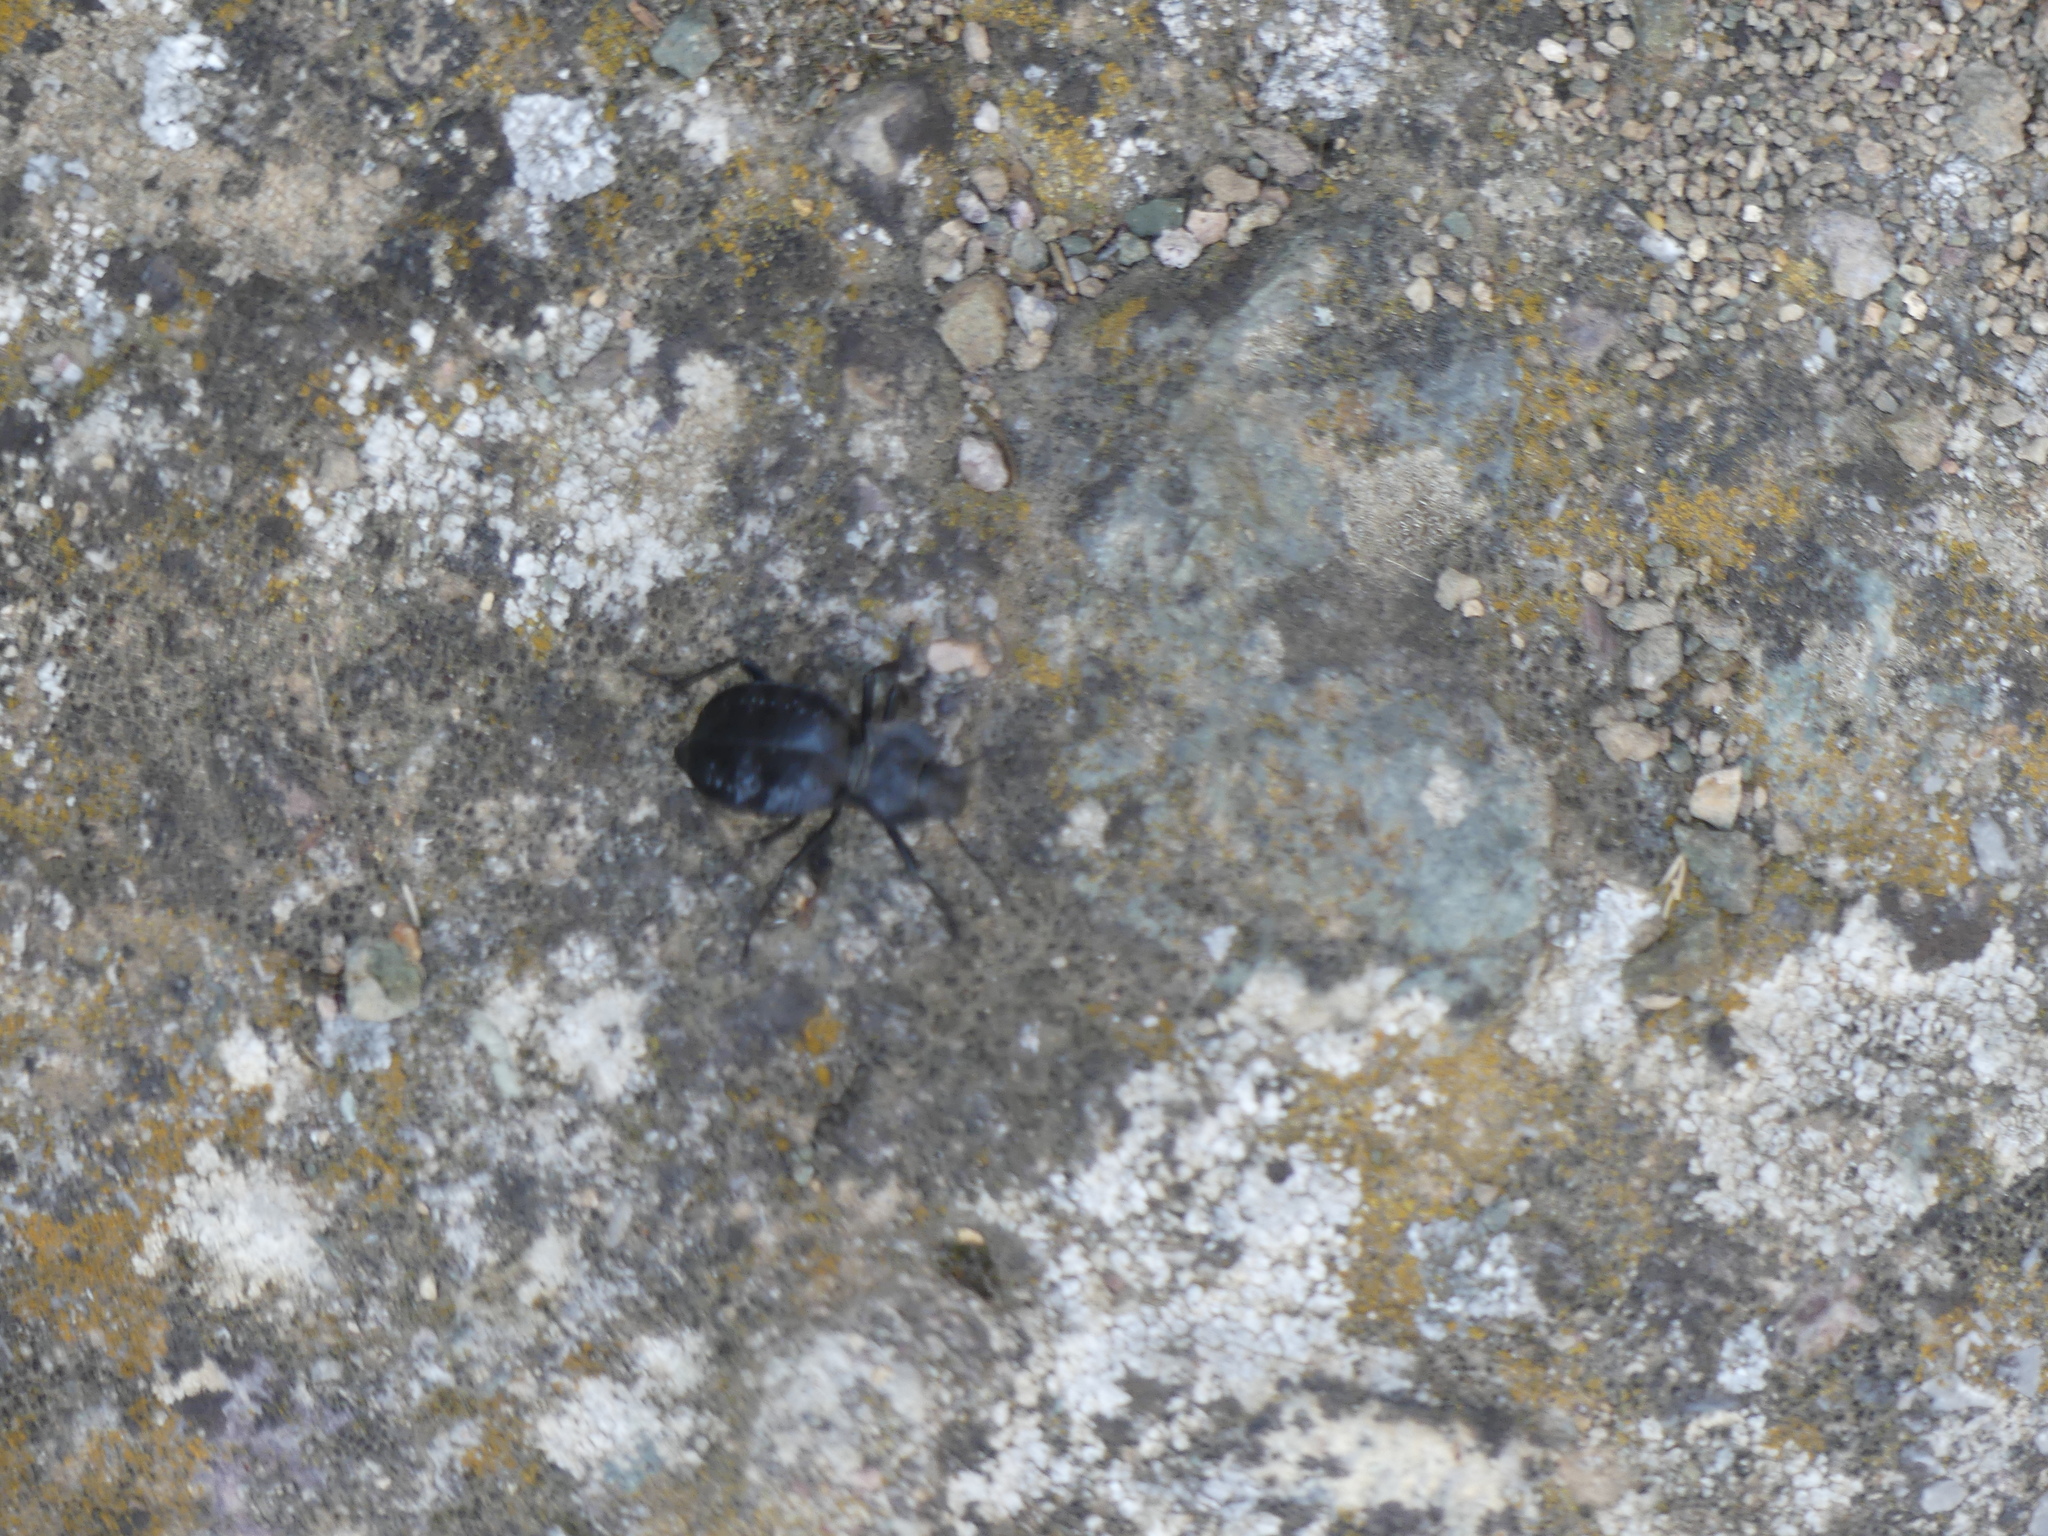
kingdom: Animalia
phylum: Arthropoda
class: Insecta
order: Coleoptera
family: Tenebrionidae
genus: Akis
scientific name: Akis bacarozzo
